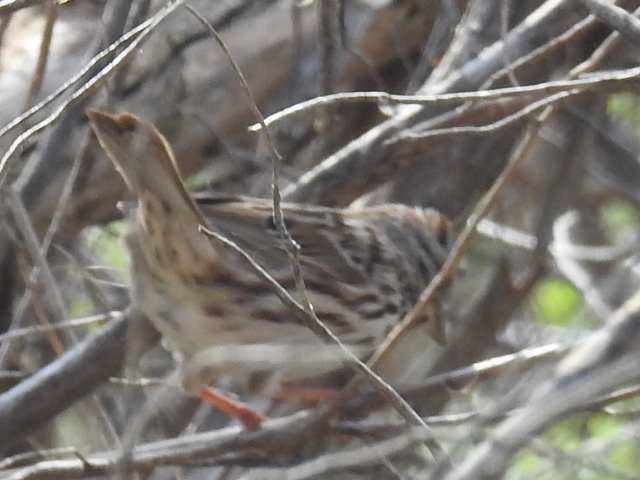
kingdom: Animalia
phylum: Chordata
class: Aves
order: Passeriformes
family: Passerellidae
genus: Melospiza
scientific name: Melospiza melodia
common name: Song sparrow
